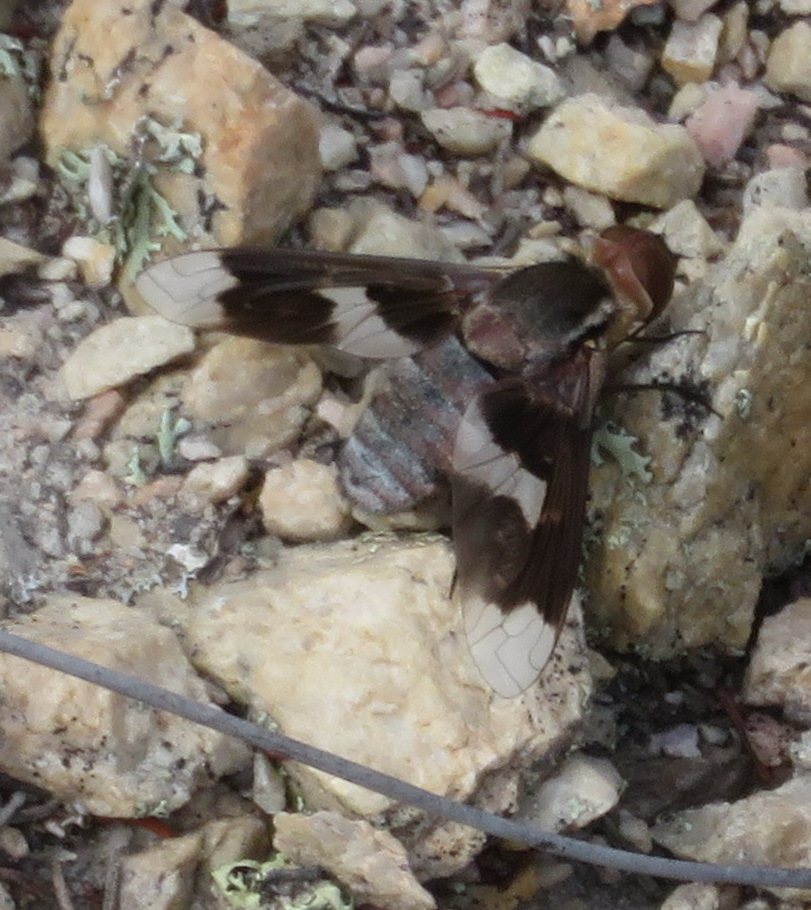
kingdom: Animalia
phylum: Arthropoda
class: Insecta
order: Diptera
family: Bombyliidae
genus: Exoprosopa
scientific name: Exoprosopa strenua
